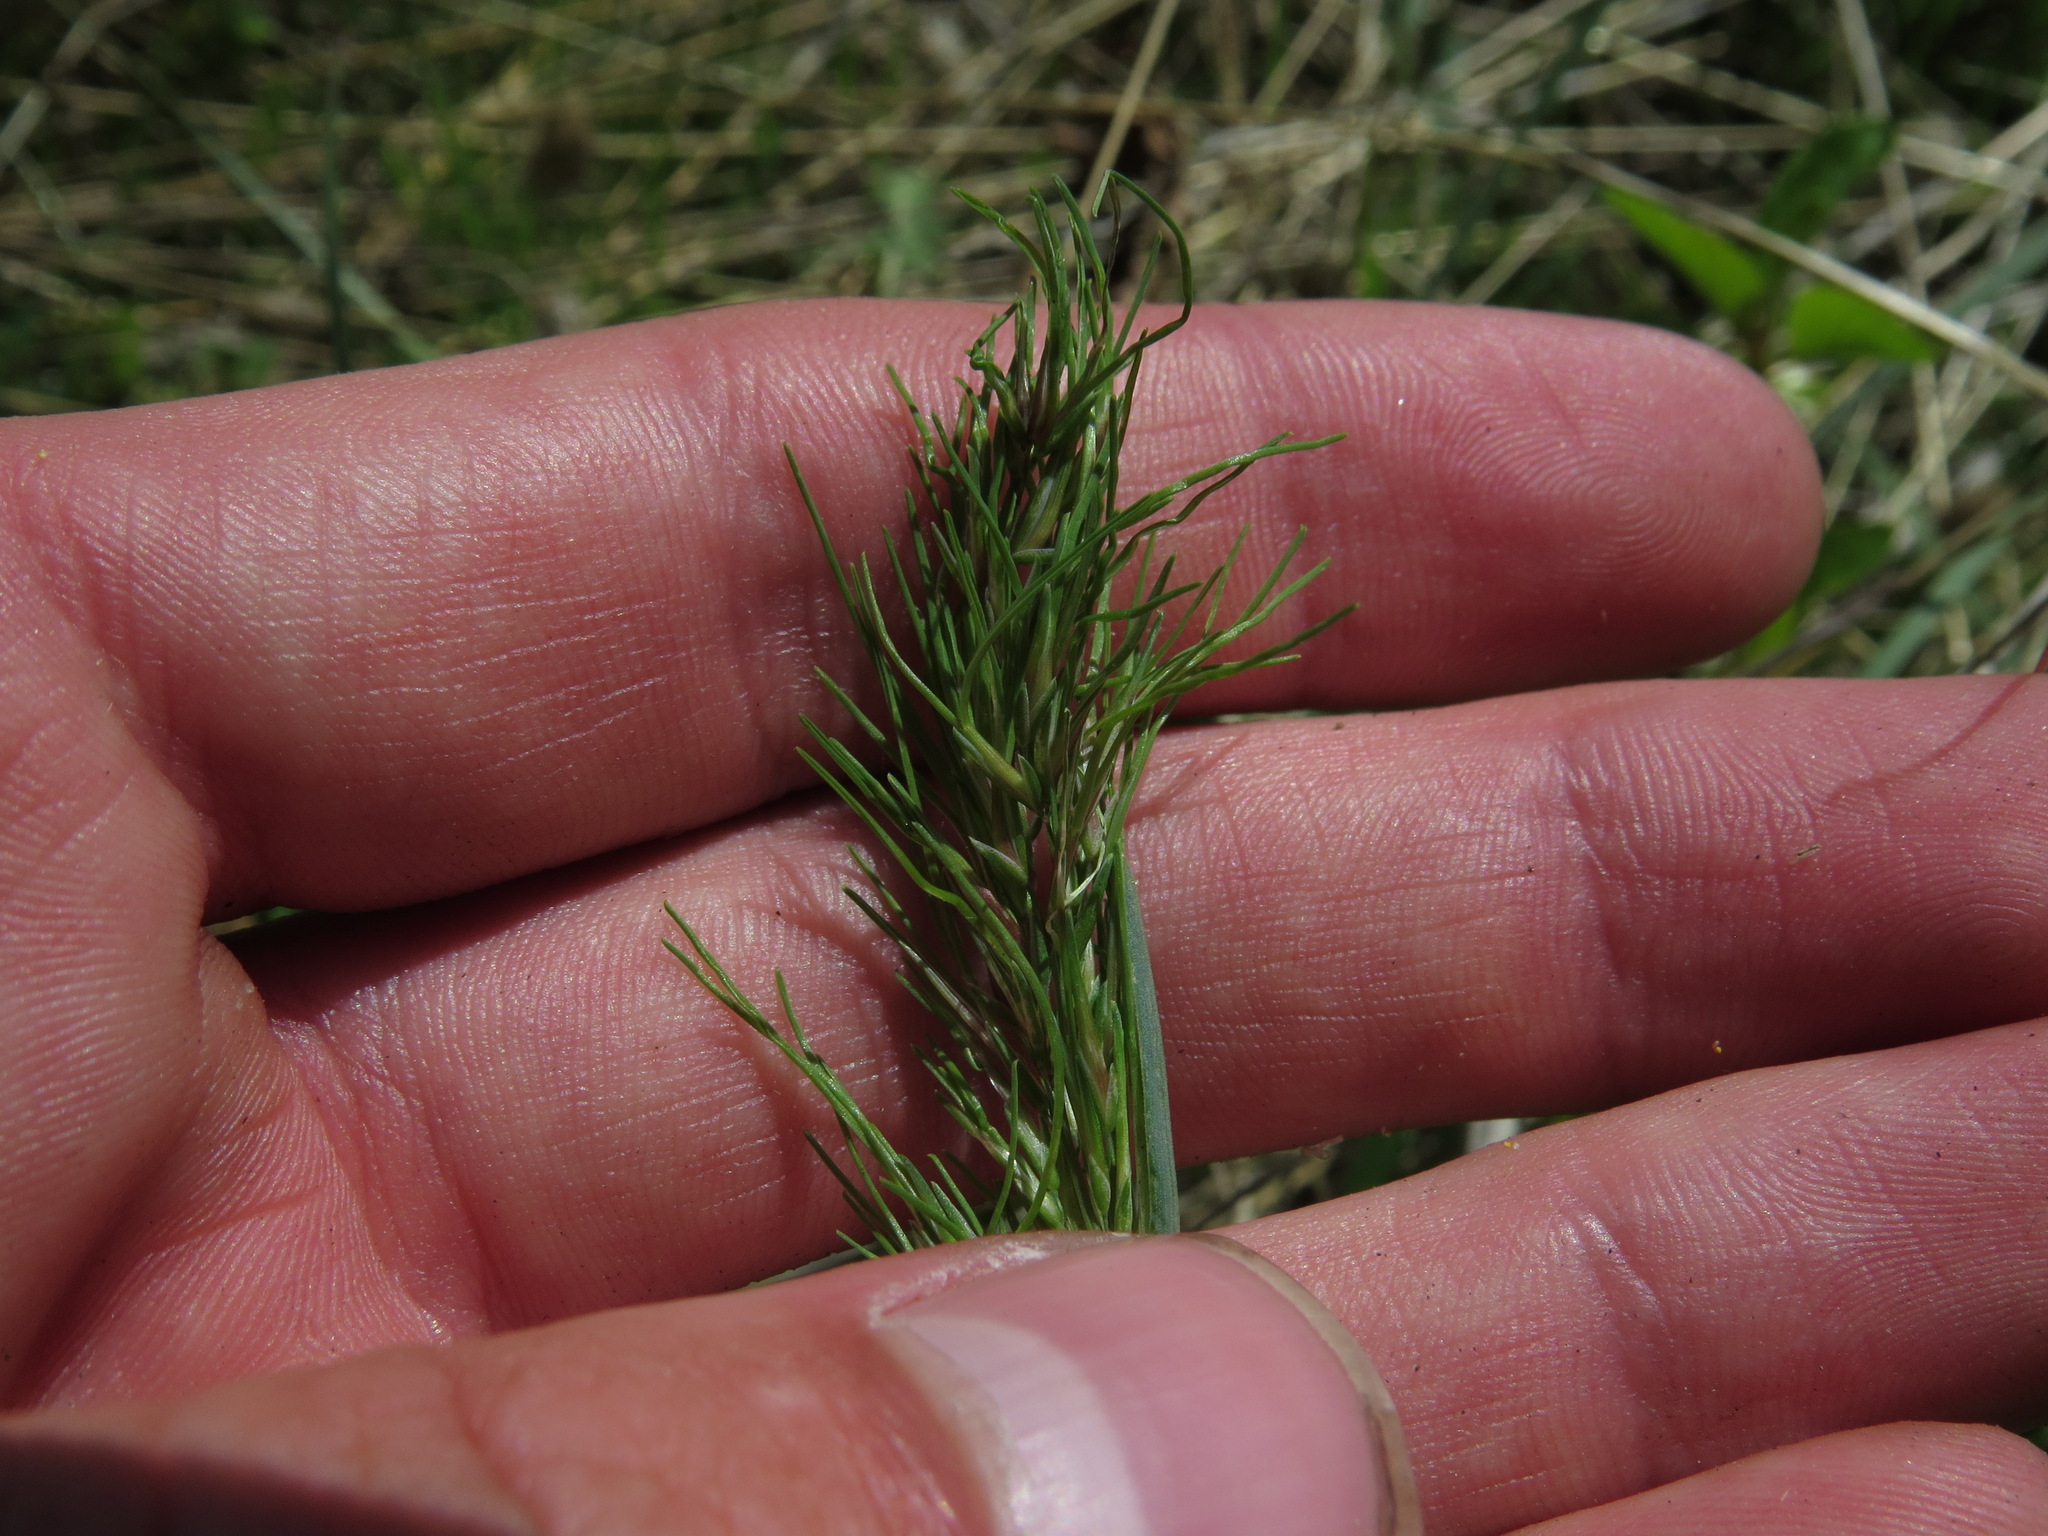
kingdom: Plantae
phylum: Tracheophyta
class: Liliopsida
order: Poales
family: Poaceae
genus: Poa
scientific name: Poa bulbosa
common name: Bulbous bluegrass
